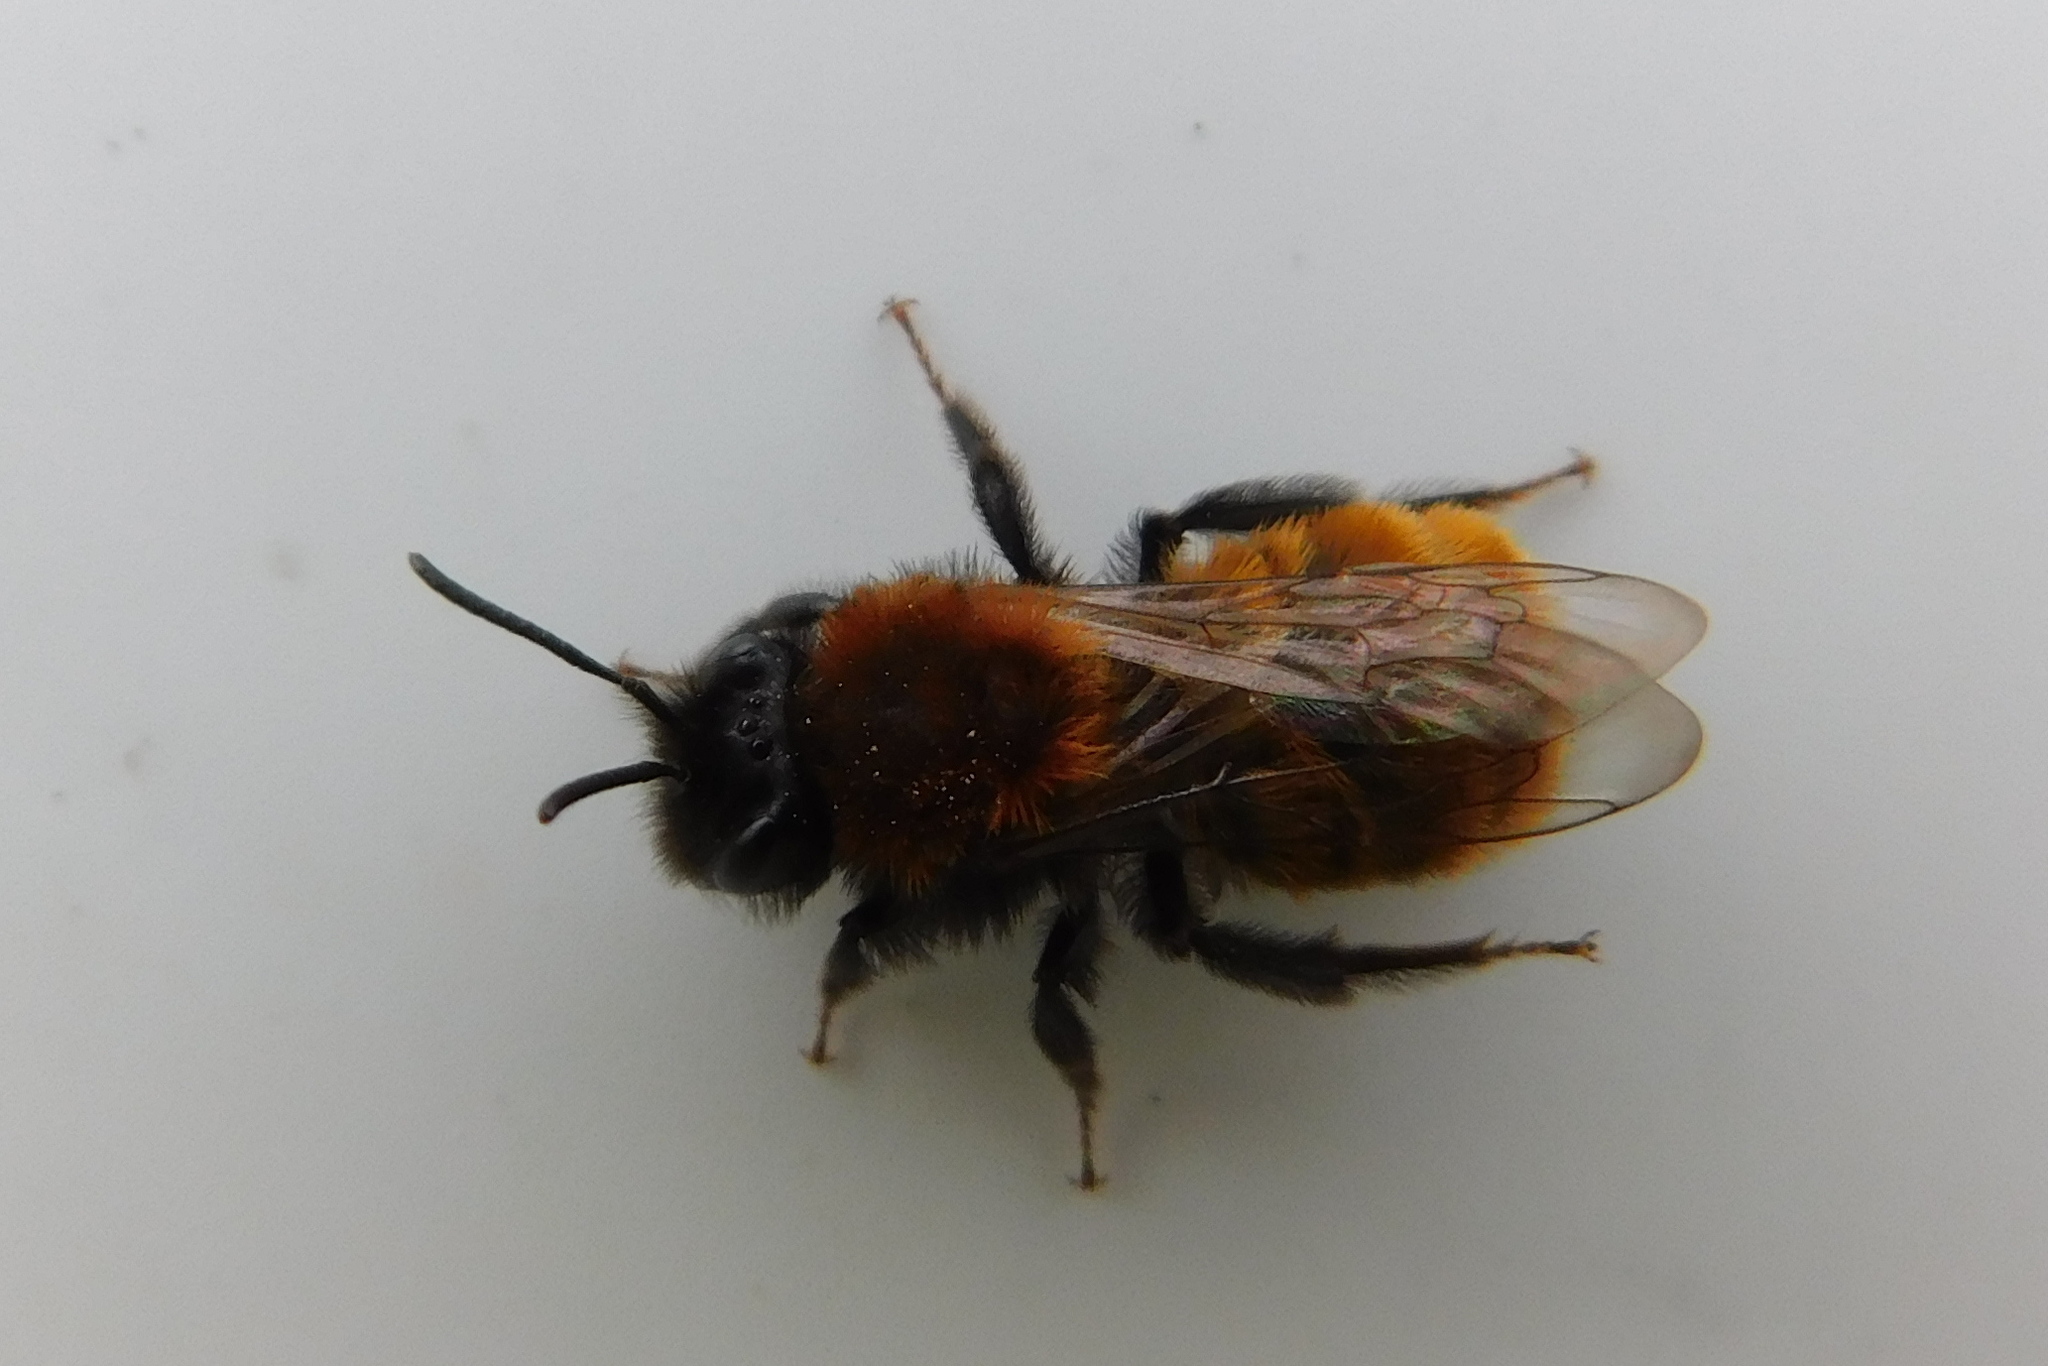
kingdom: Animalia
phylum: Arthropoda
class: Insecta
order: Hymenoptera
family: Andrenidae
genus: Andrena
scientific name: Andrena fulva
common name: Tawny mining bee
